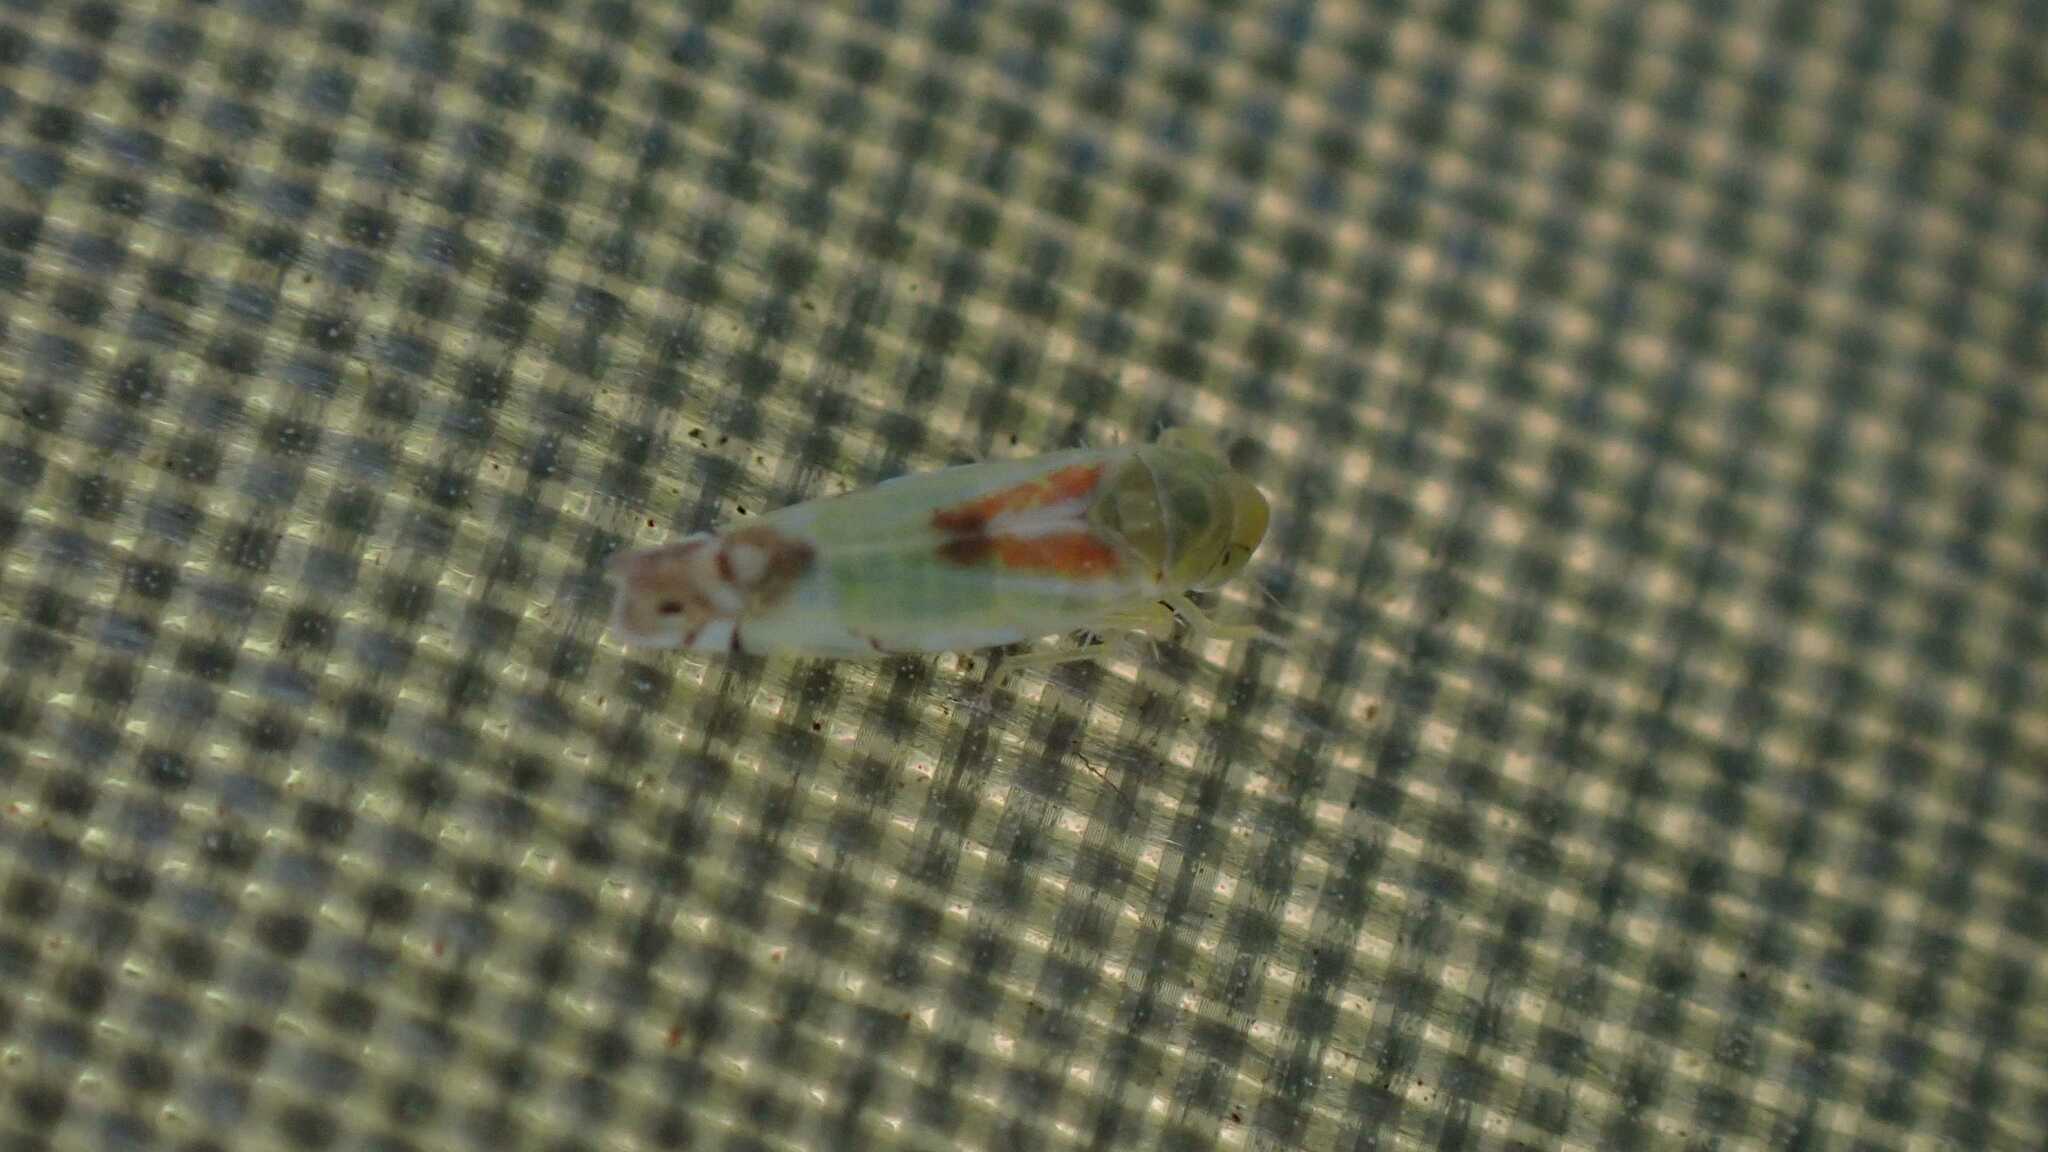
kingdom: Animalia
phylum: Arthropoda
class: Insecta
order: Hemiptera
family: Cicadellidae
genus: Zyginella
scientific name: Zyginella pulchra
